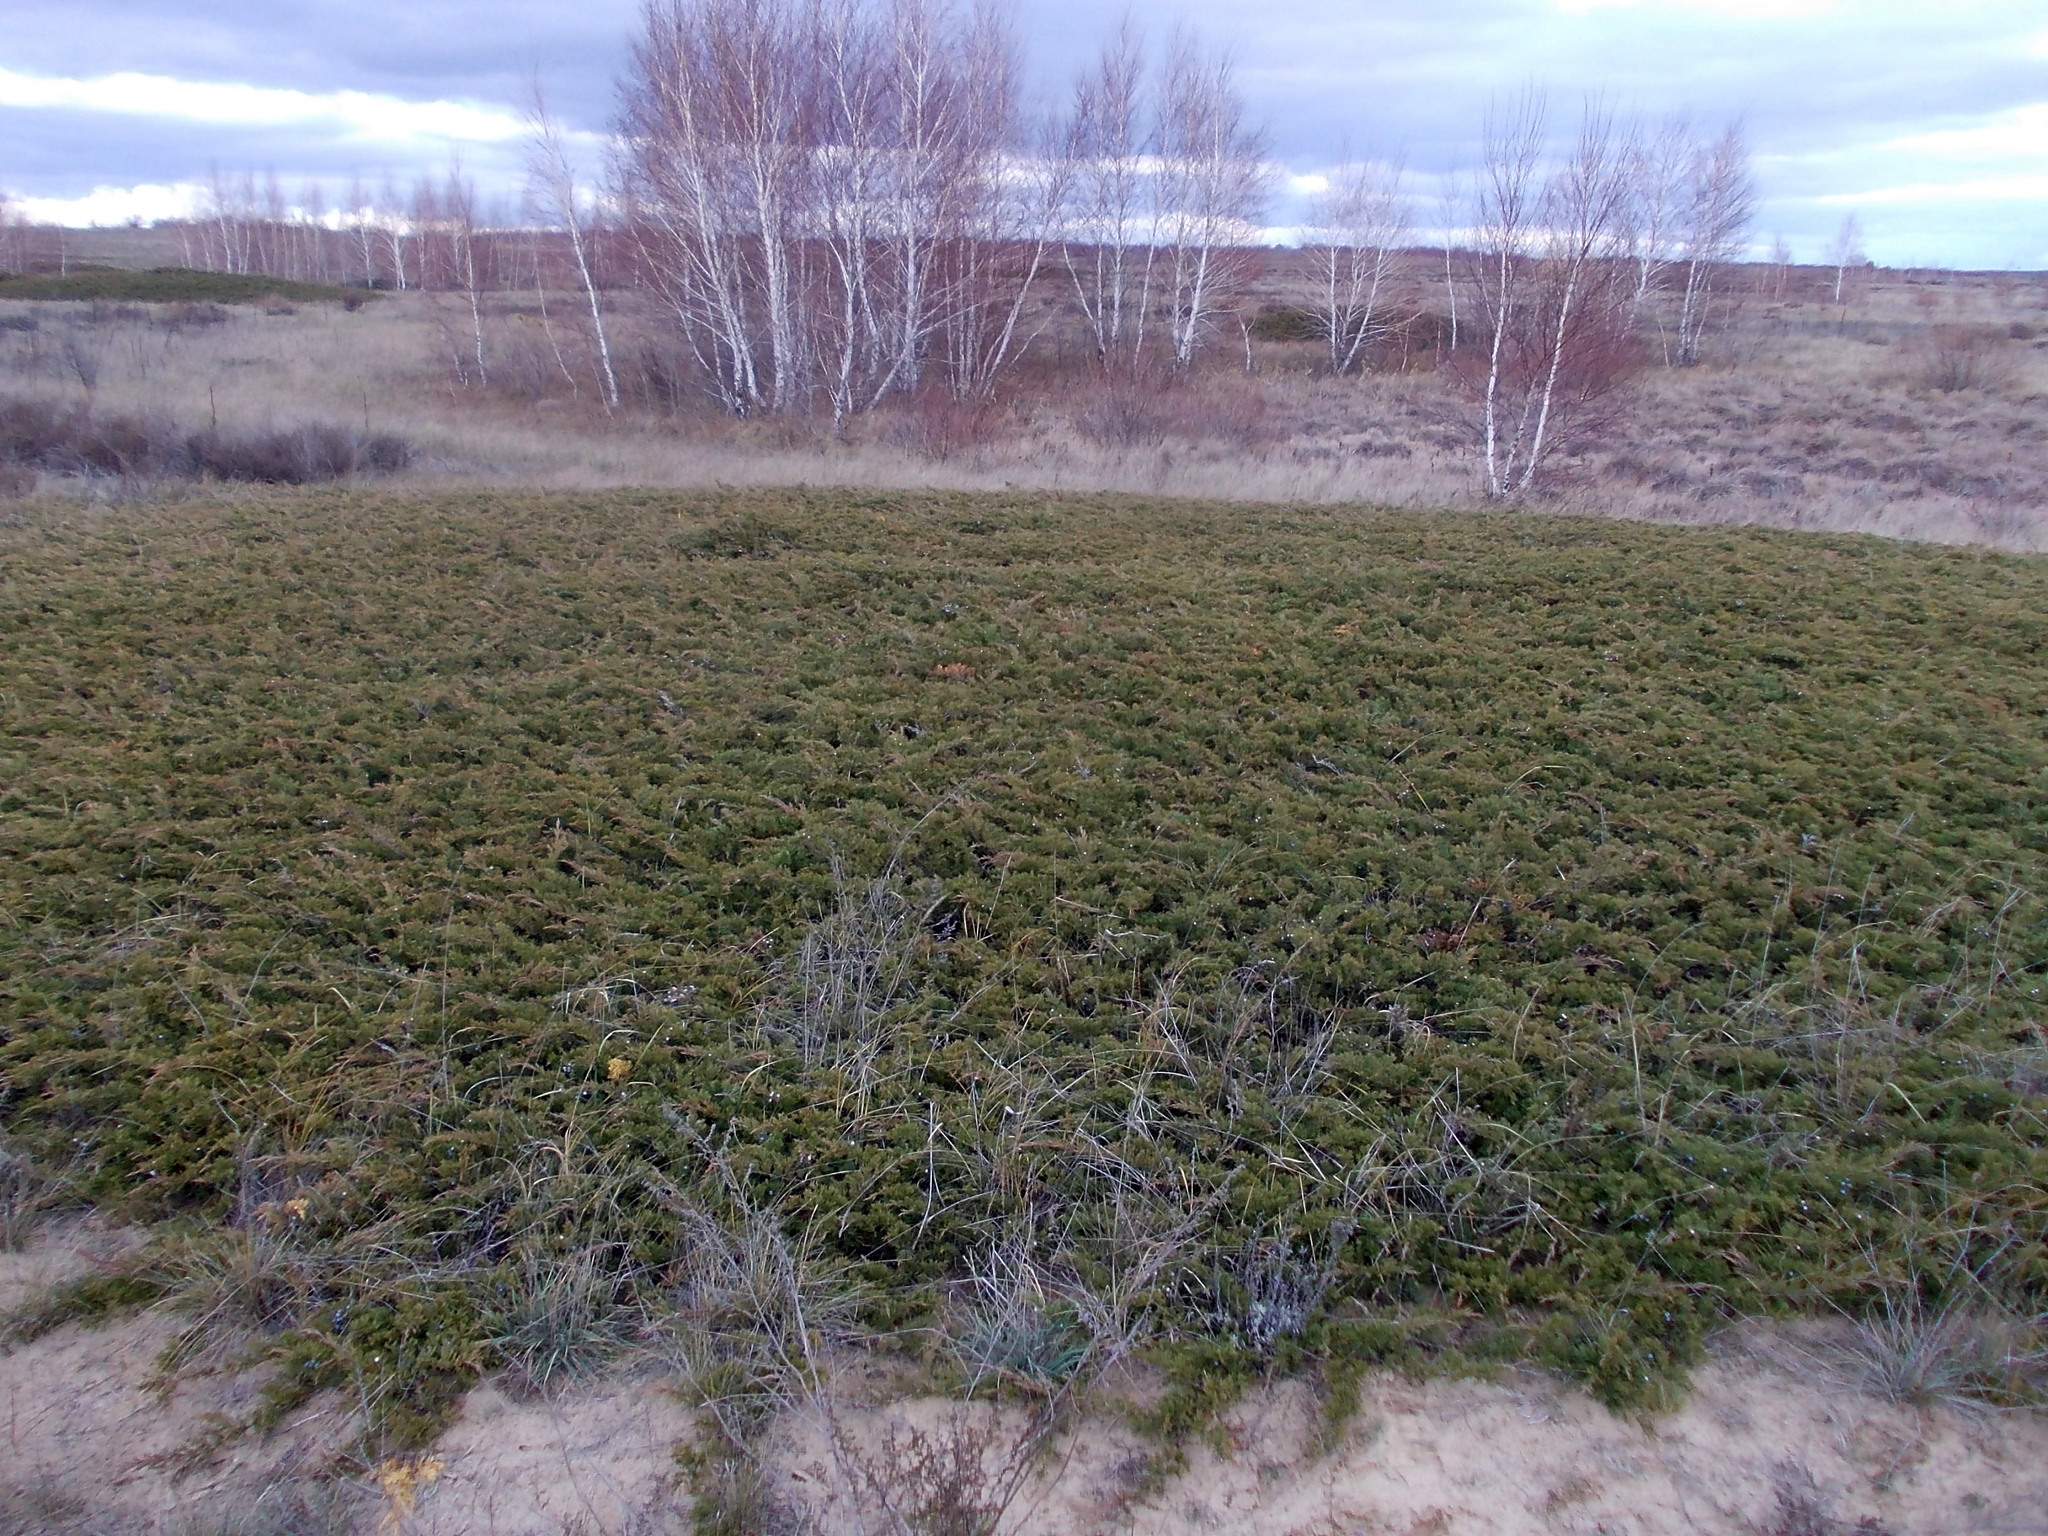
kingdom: Plantae
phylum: Tracheophyta
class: Pinopsida
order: Pinales
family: Cupressaceae
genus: Juniperus
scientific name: Juniperus sabina
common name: Savin
